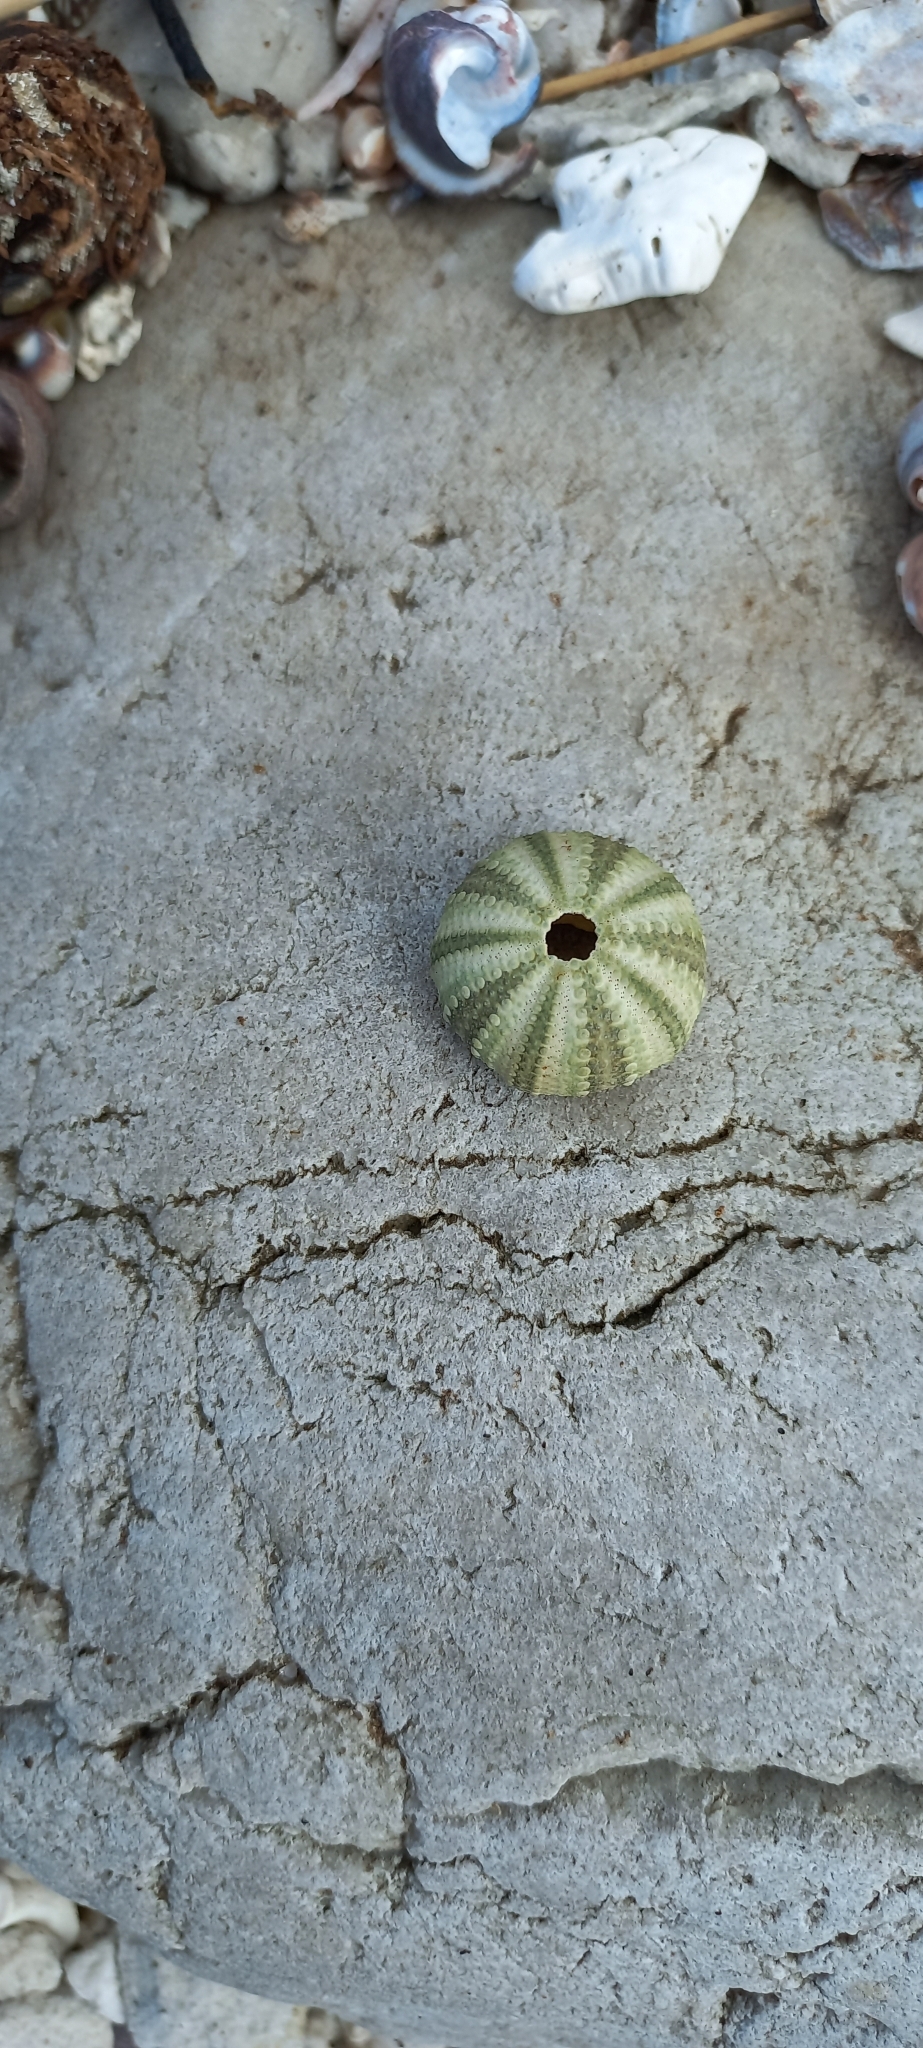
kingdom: Animalia
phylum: Echinodermata
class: Echinoidea
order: Camarodonta
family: Parechinidae
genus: Parechinus
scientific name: Parechinus angulosus
